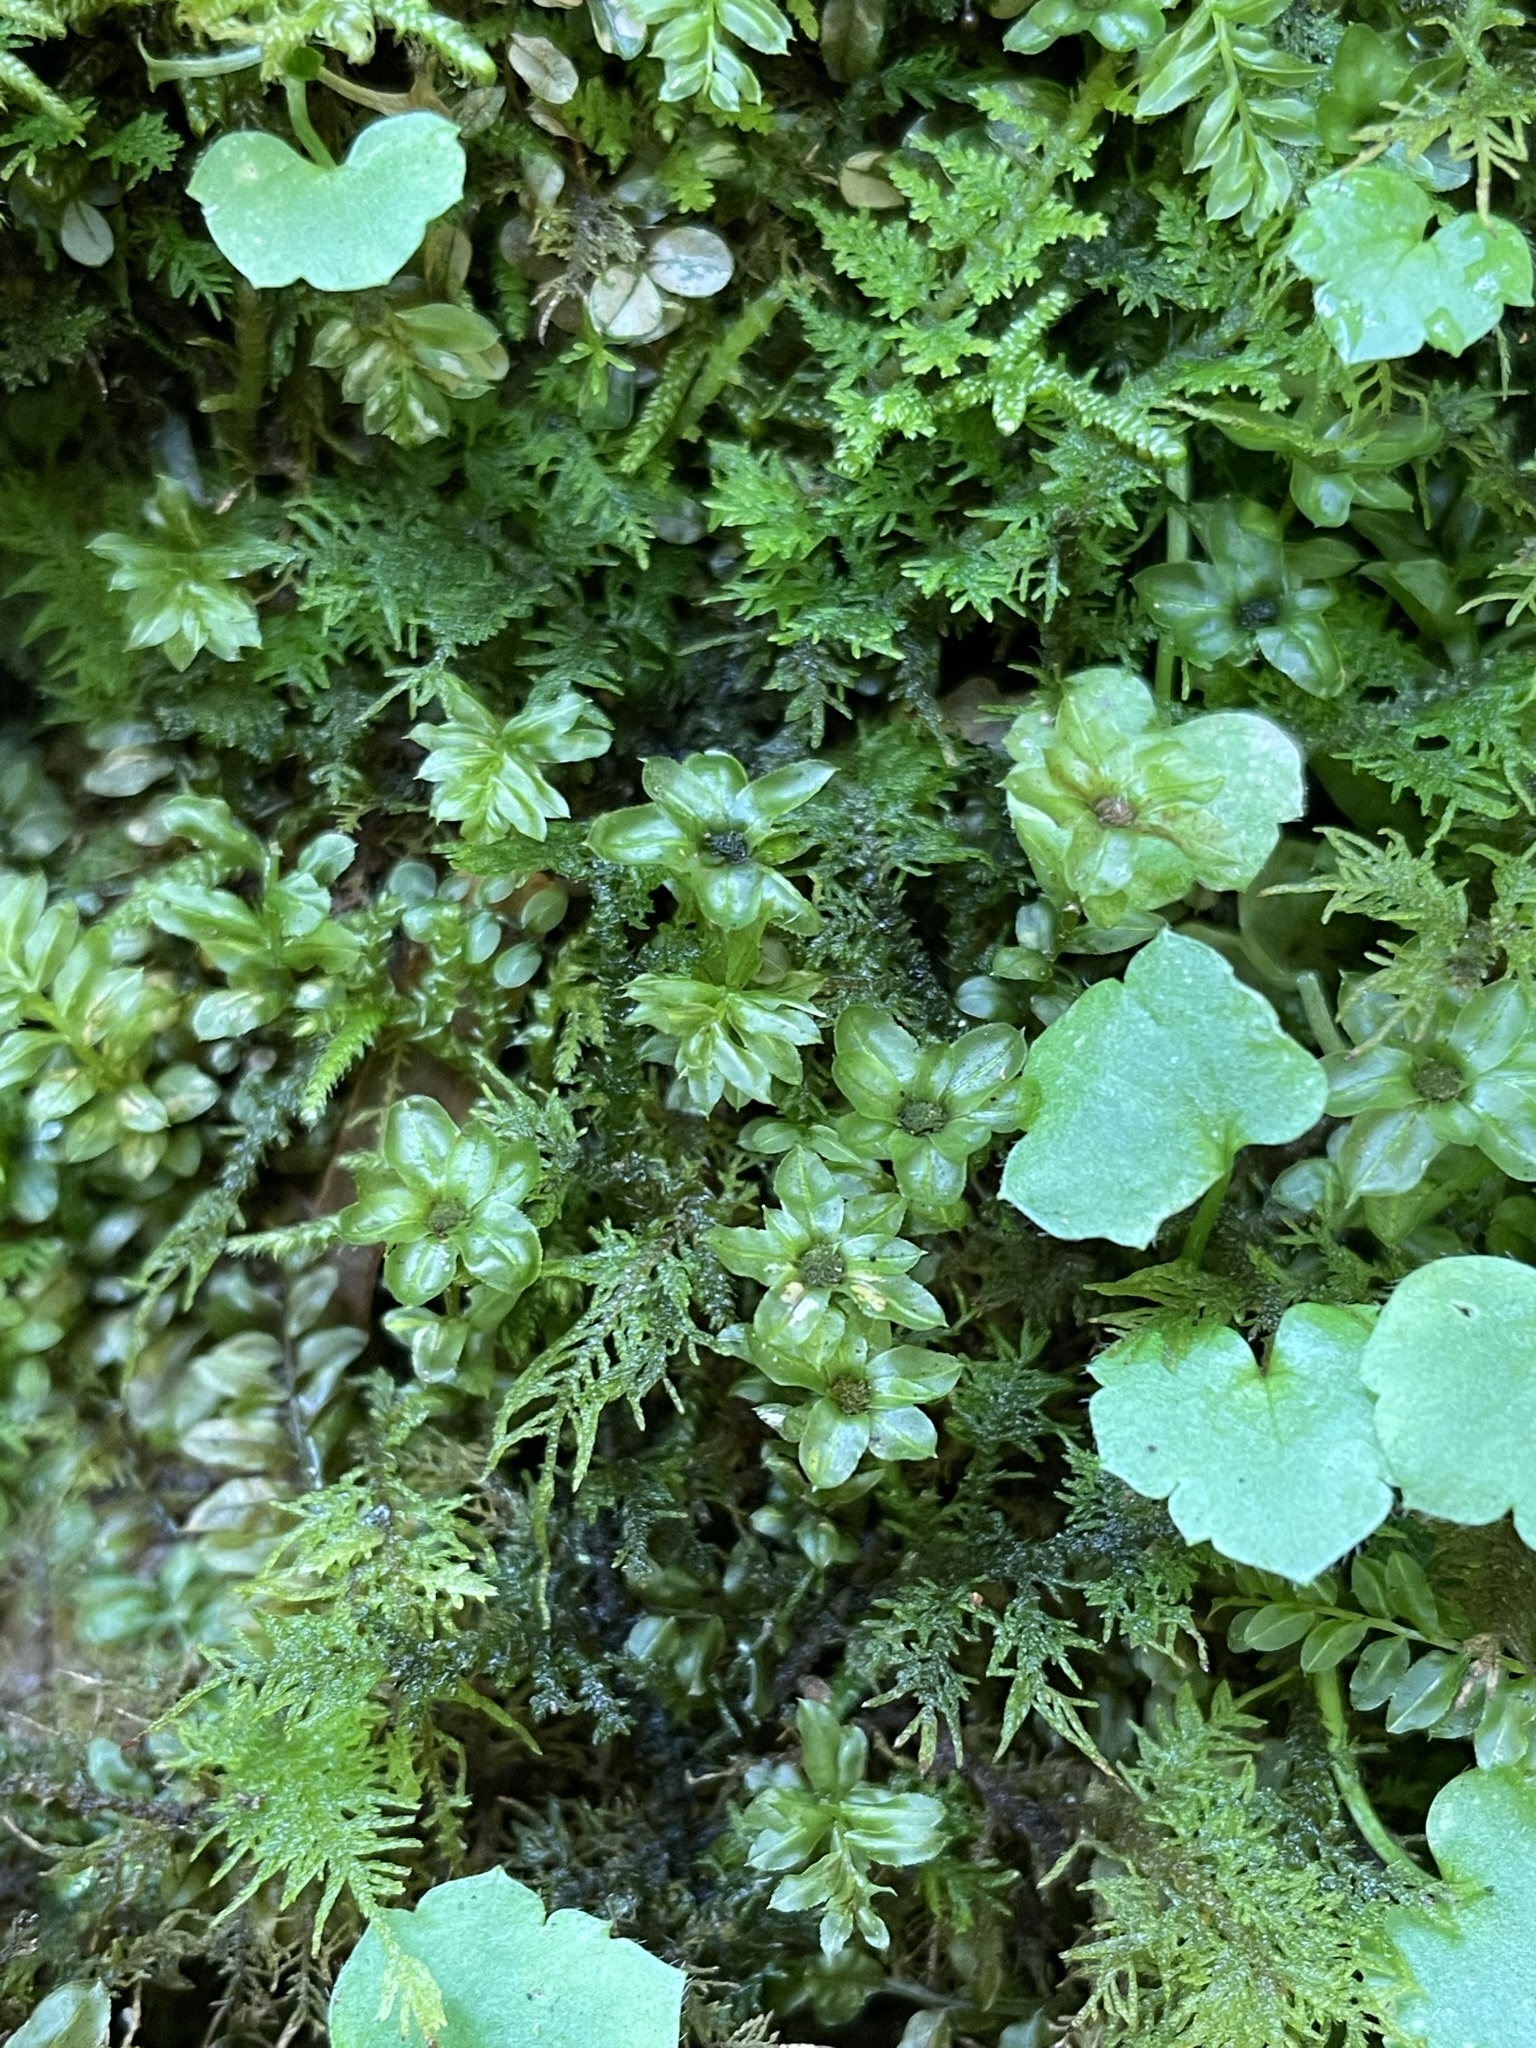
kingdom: Plantae
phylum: Bryophyta
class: Bryopsida
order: Bryales
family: Mniaceae
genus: Plagiomnium
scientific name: Plagiomnium ciliare
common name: Toothed leafy moss
